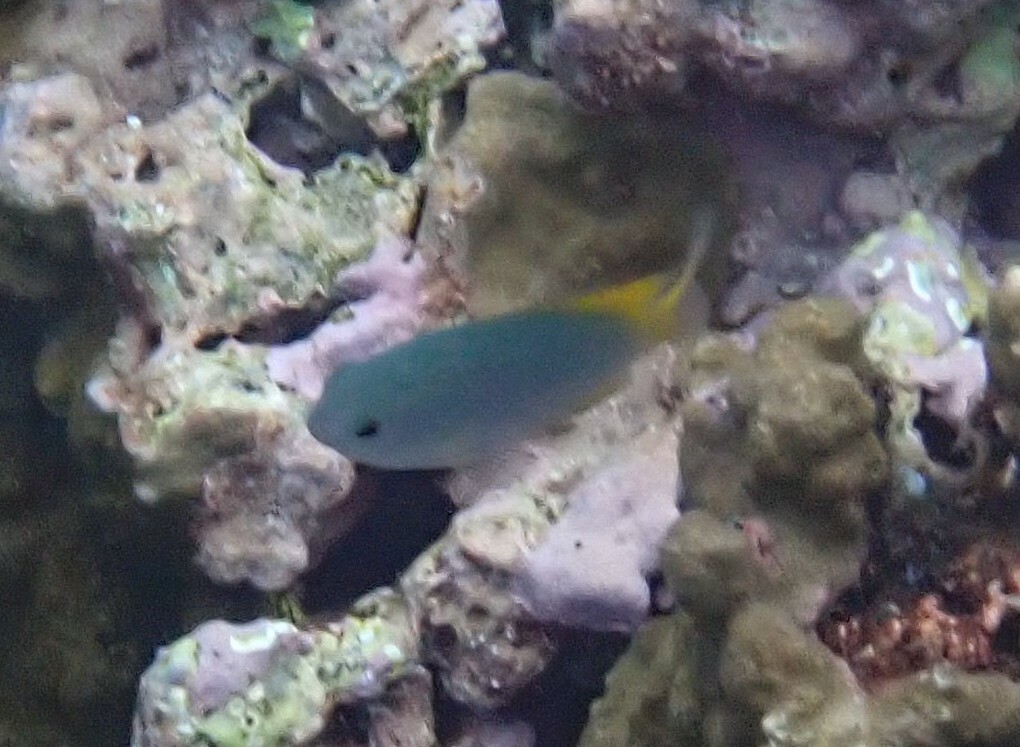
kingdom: Animalia
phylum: Chordata
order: Perciformes
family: Pomacentridae
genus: Pomacentrus
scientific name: Pomacentrus lepidogenys
